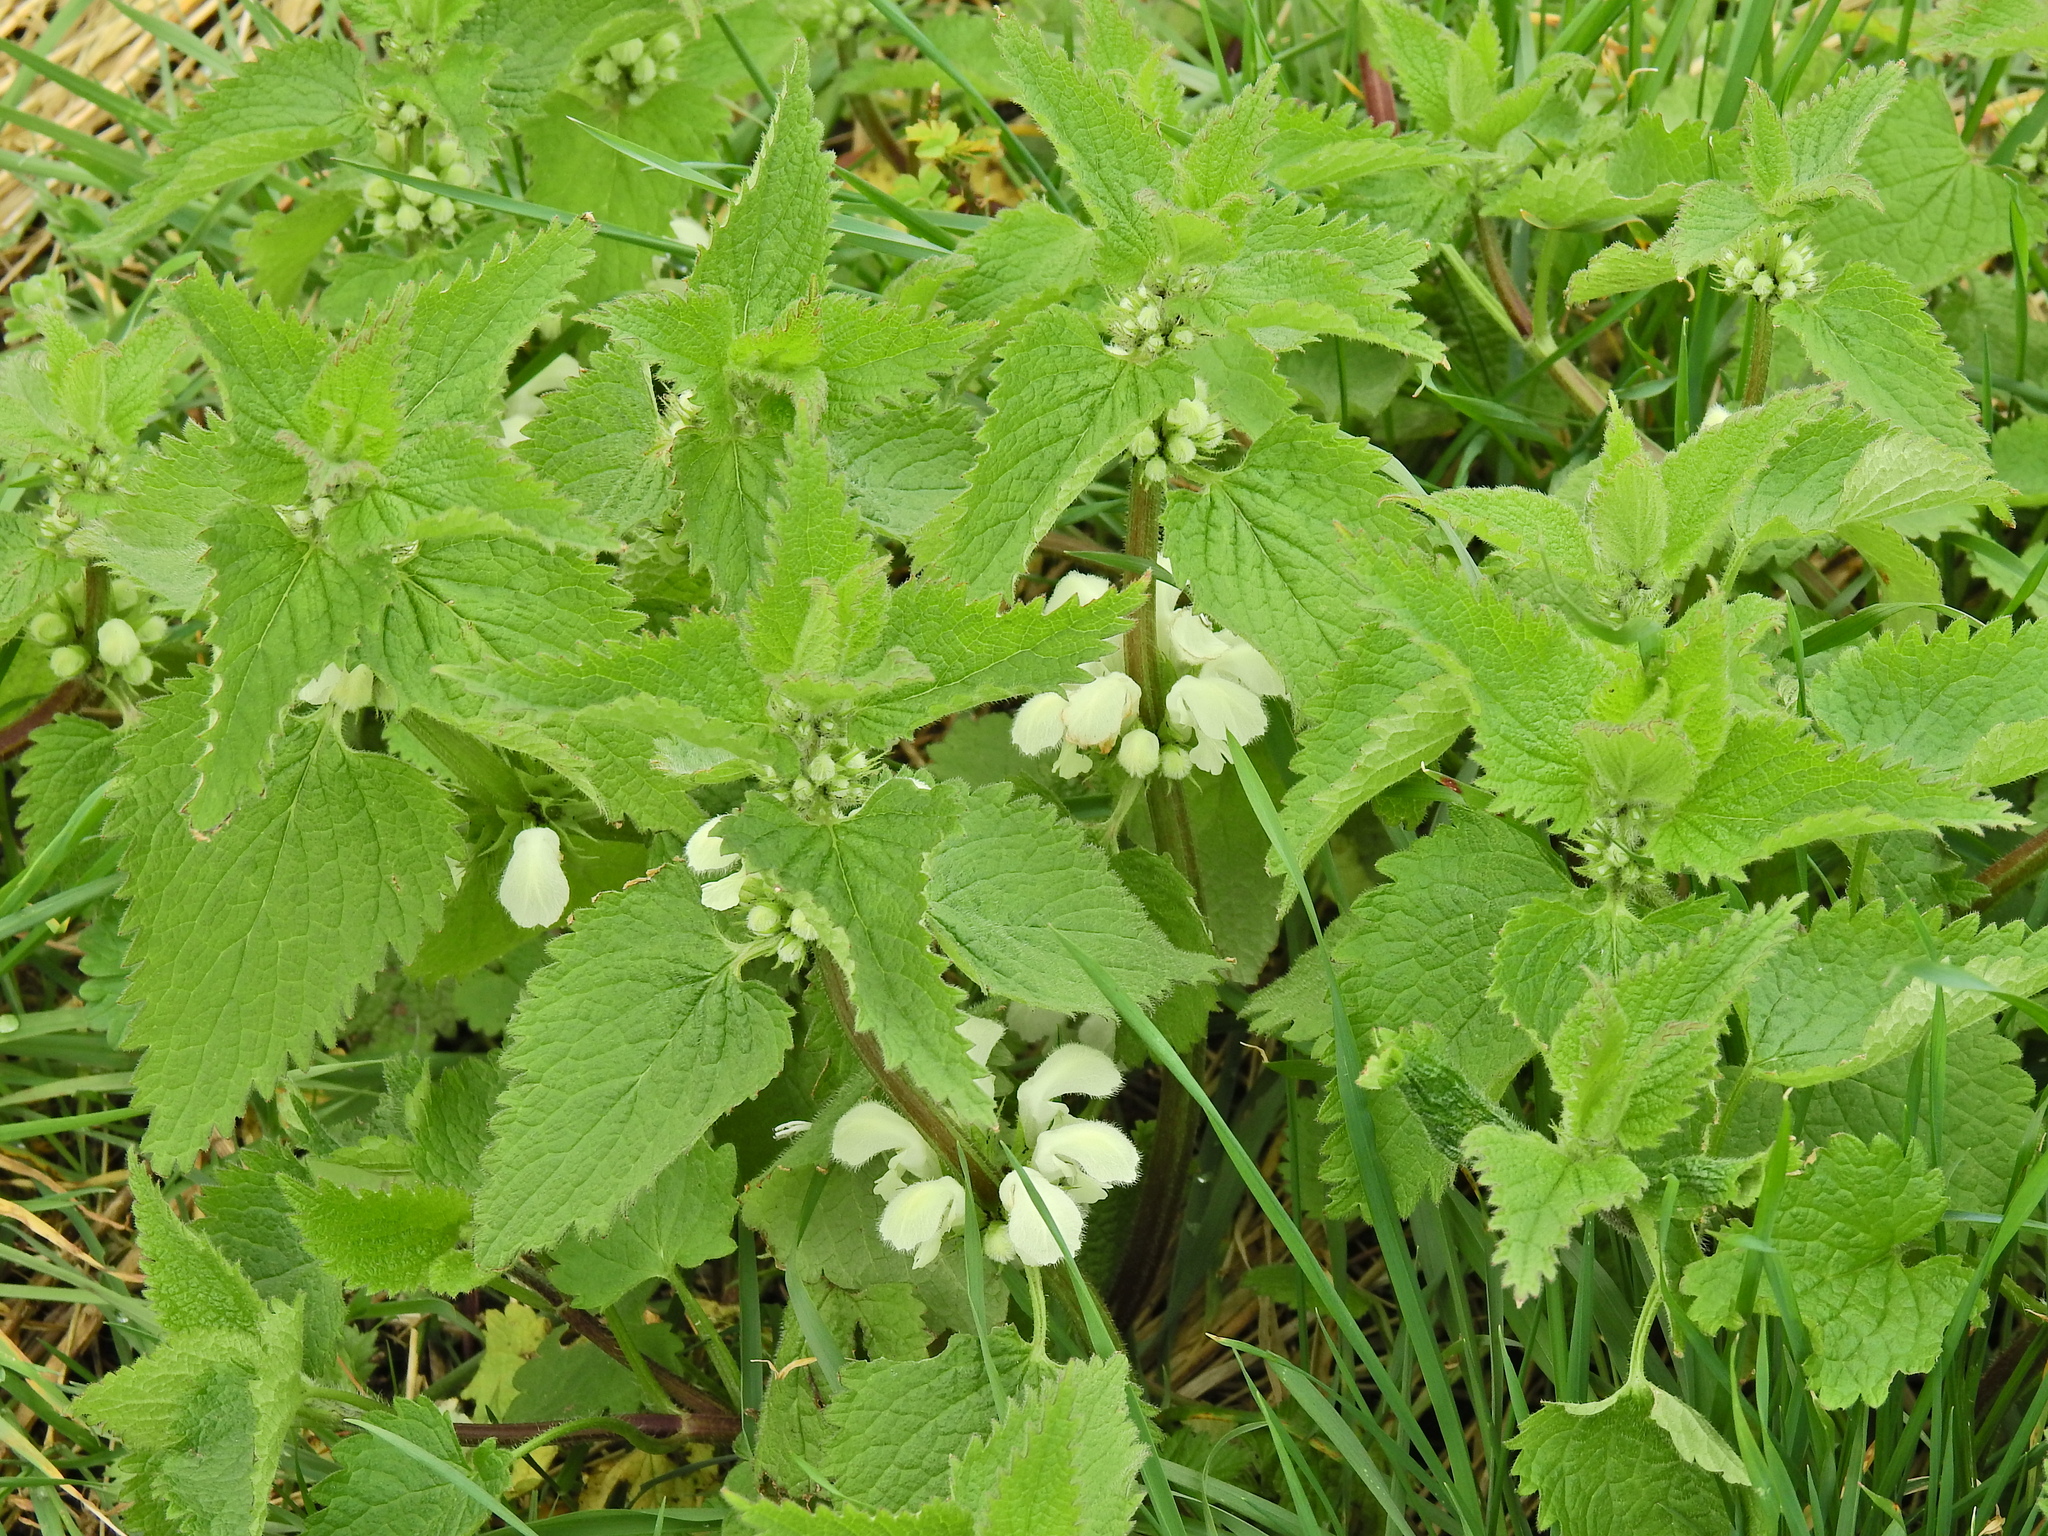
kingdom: Plantae
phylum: Tracheophyta
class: Magnoliopsida
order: Lamiales
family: Lamiaceae
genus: Lamium
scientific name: Lamium album
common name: White dead-nettle
